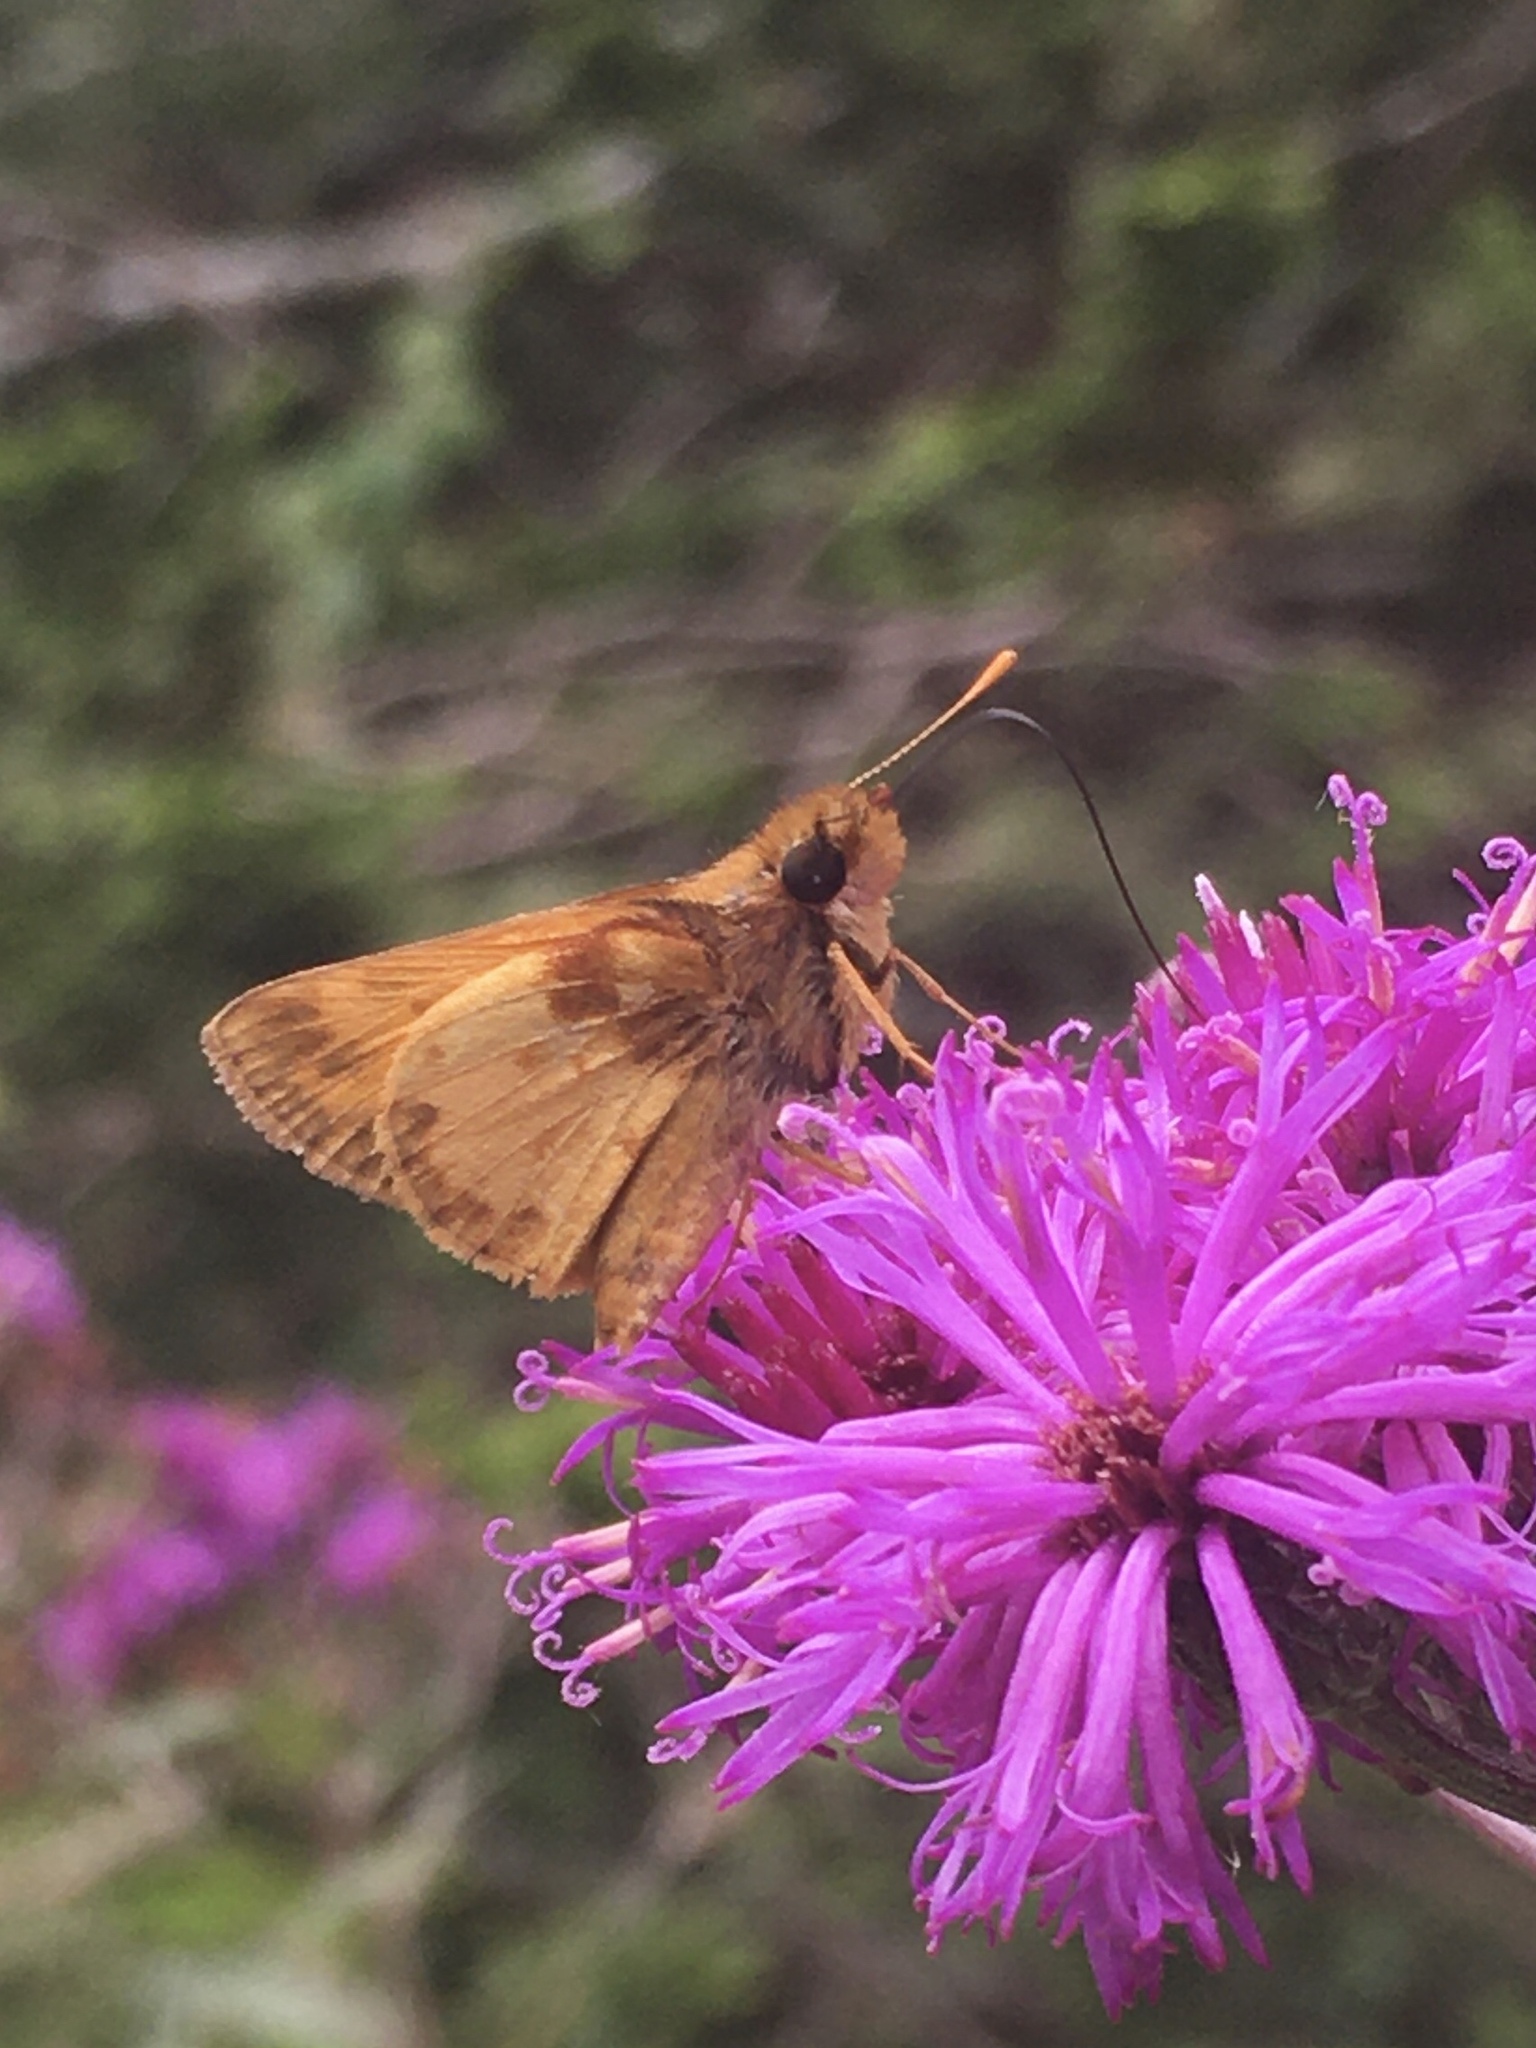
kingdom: Animalia
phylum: Arthropoda
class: Insecta
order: Lepidoptera
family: Hesperiidae
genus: Lon
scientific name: Lon zabulon
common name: Zabulon skipper
